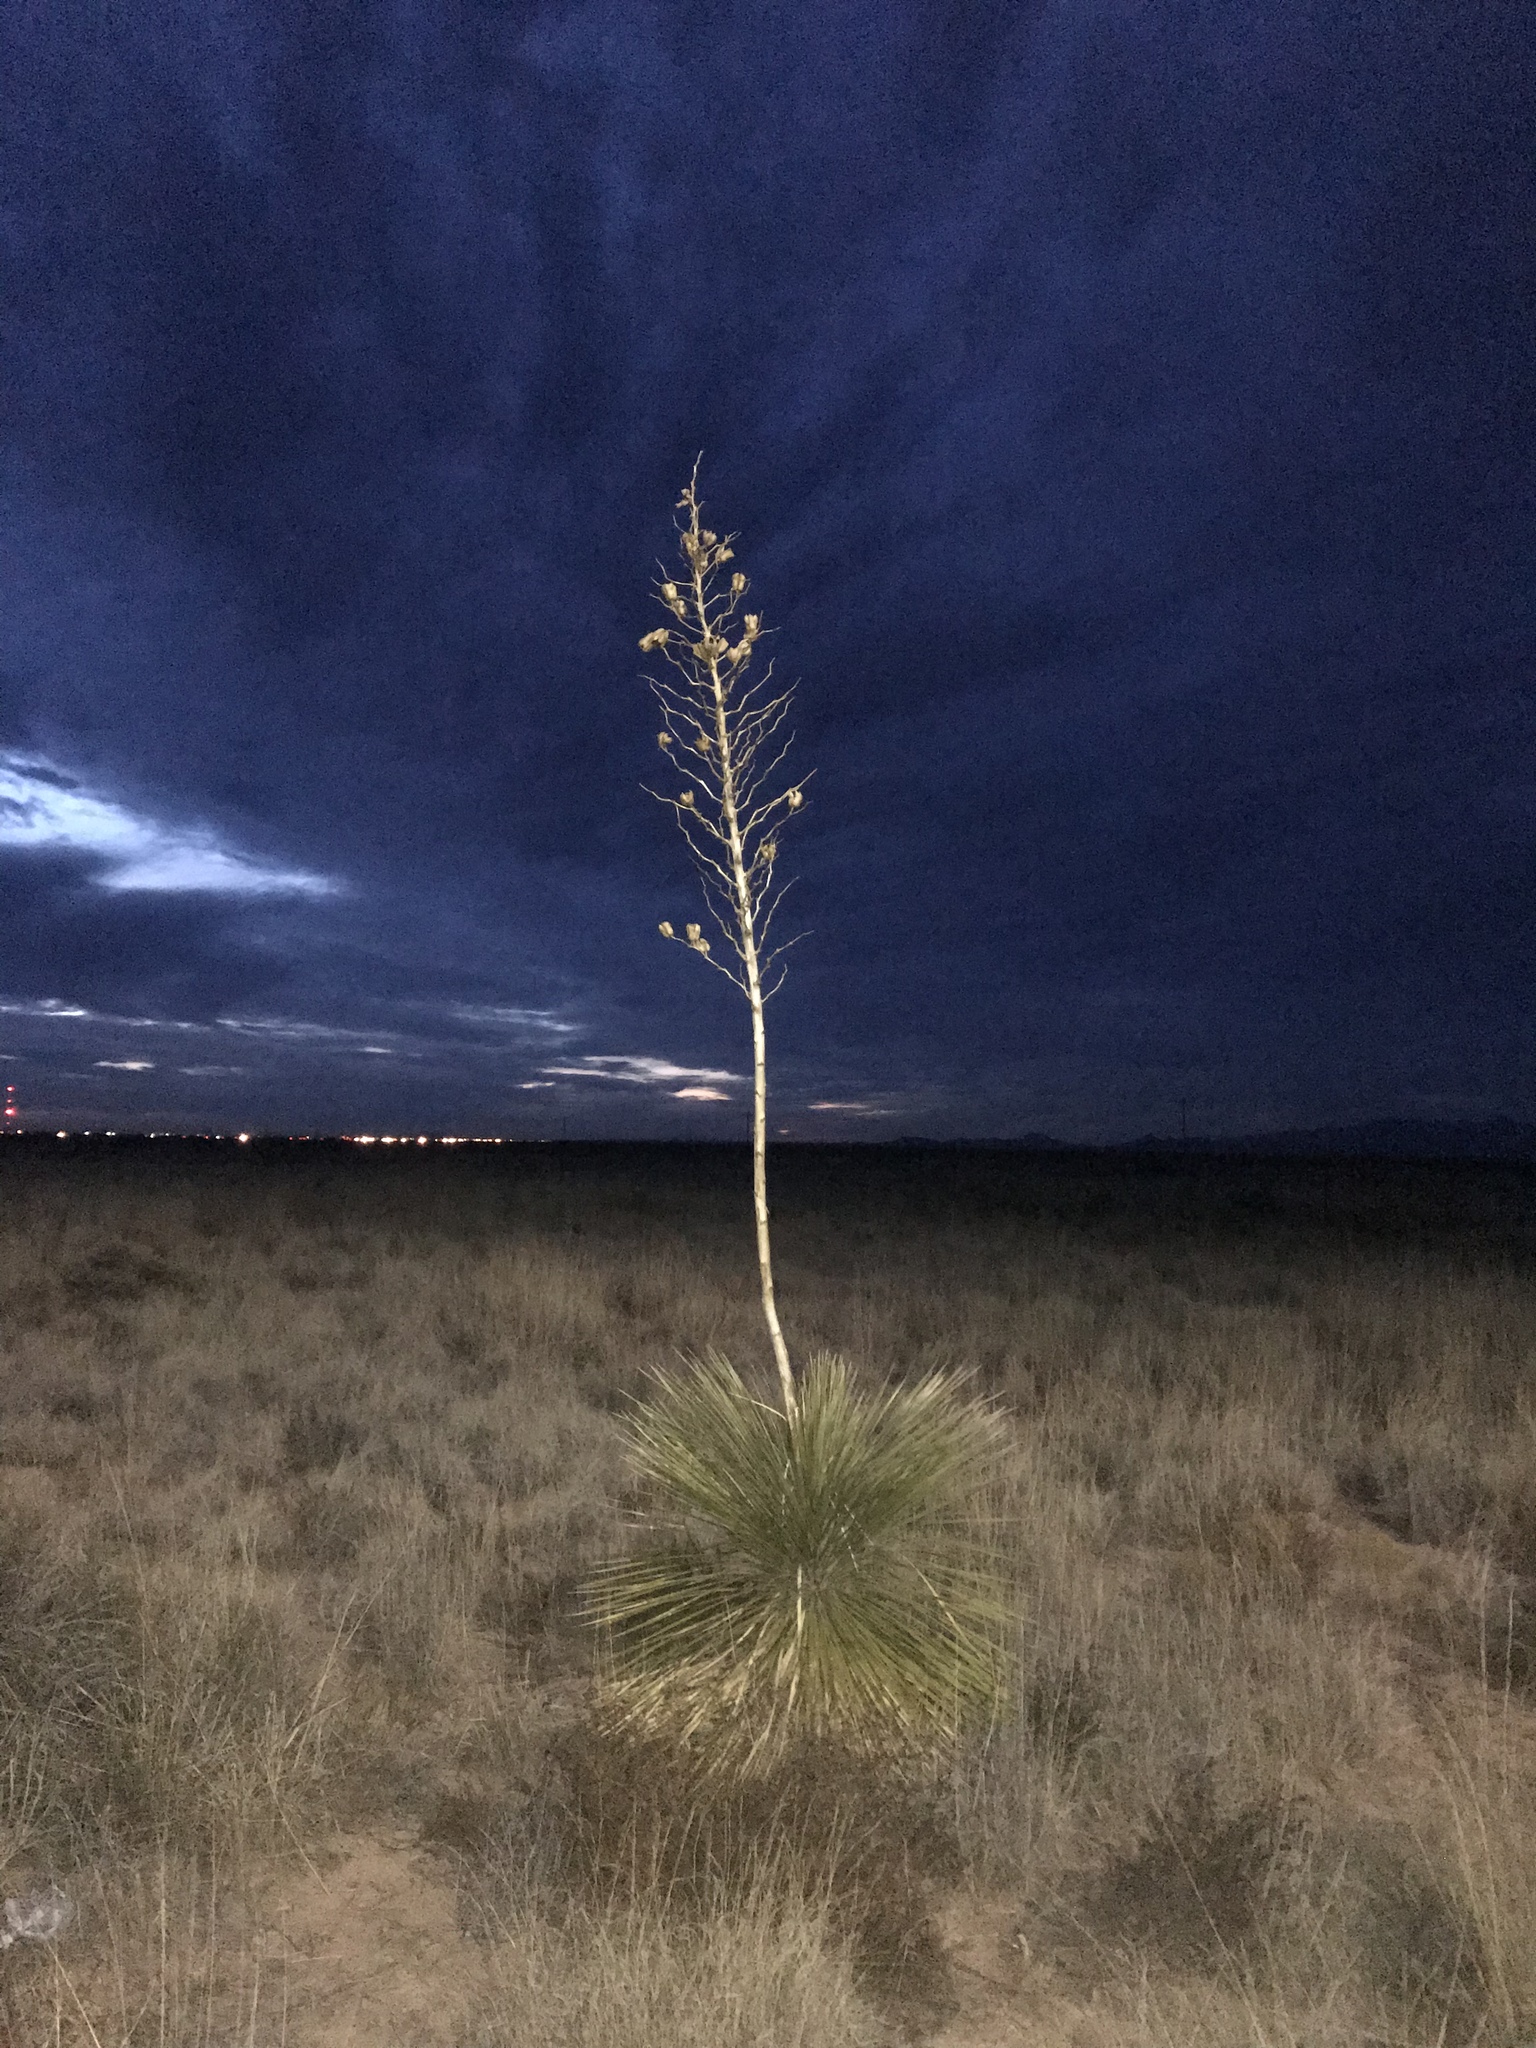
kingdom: Plantae
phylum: Tracheophyta
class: Liliopsida
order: Asparagales
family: Asparagaceae
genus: Yucca
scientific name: Yucca elata
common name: Palmella
